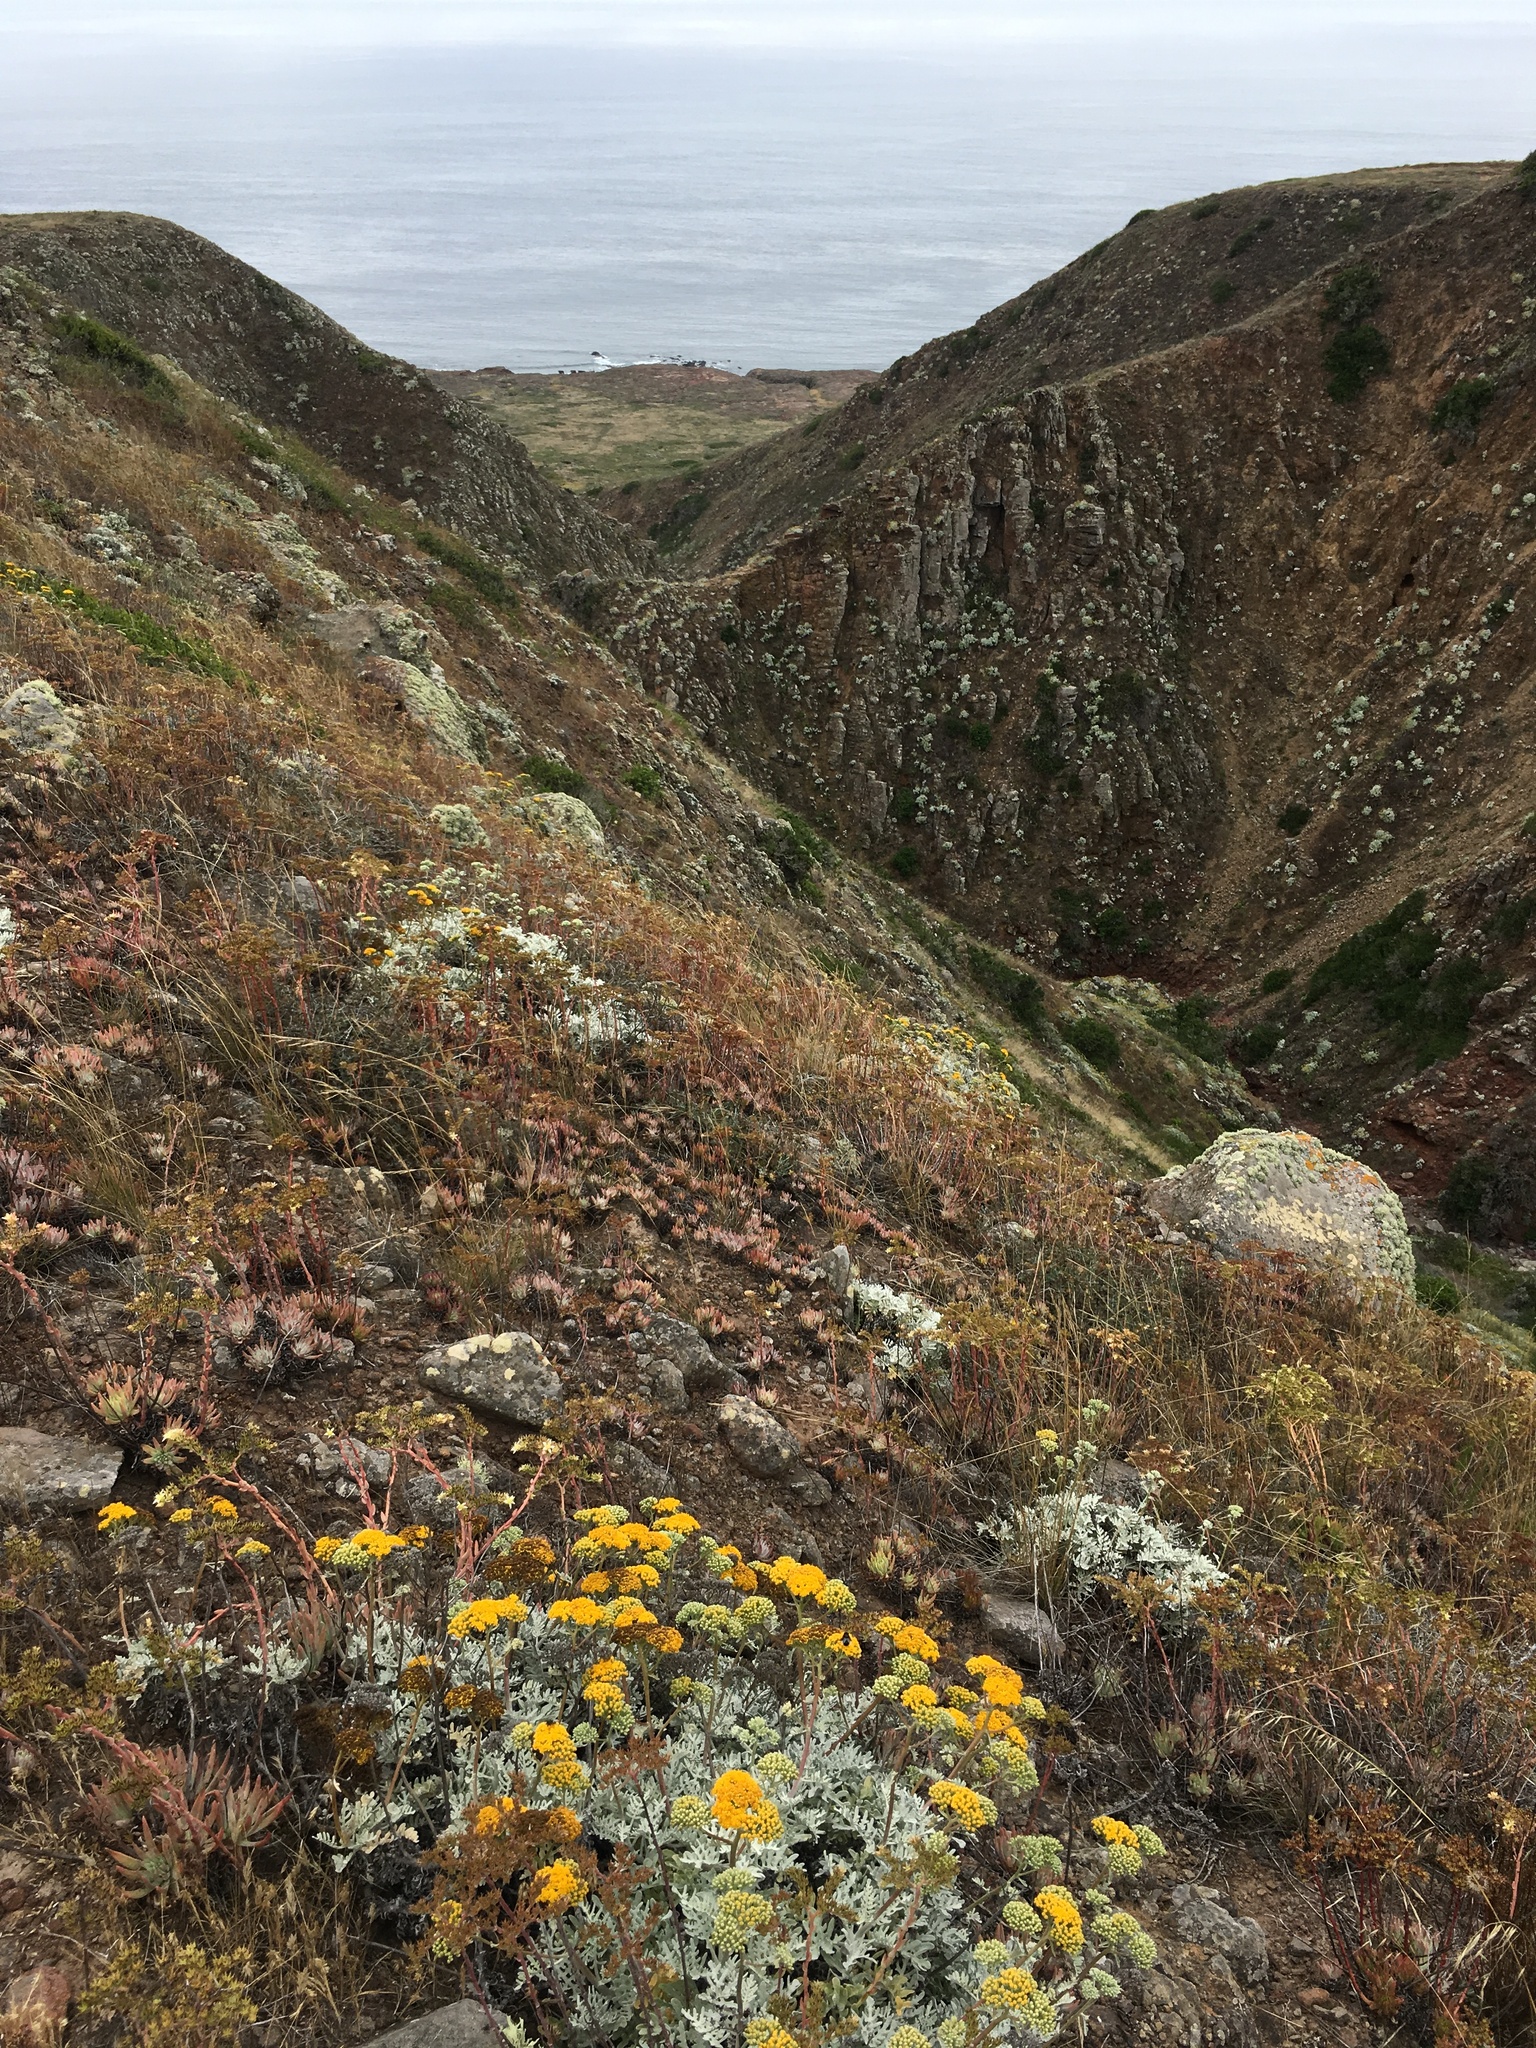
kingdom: Plantae
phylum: Tracheophyta
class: Magnoliopsida
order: Asterales
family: Asteraceae
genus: Constancea
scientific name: Constancea nevinii
